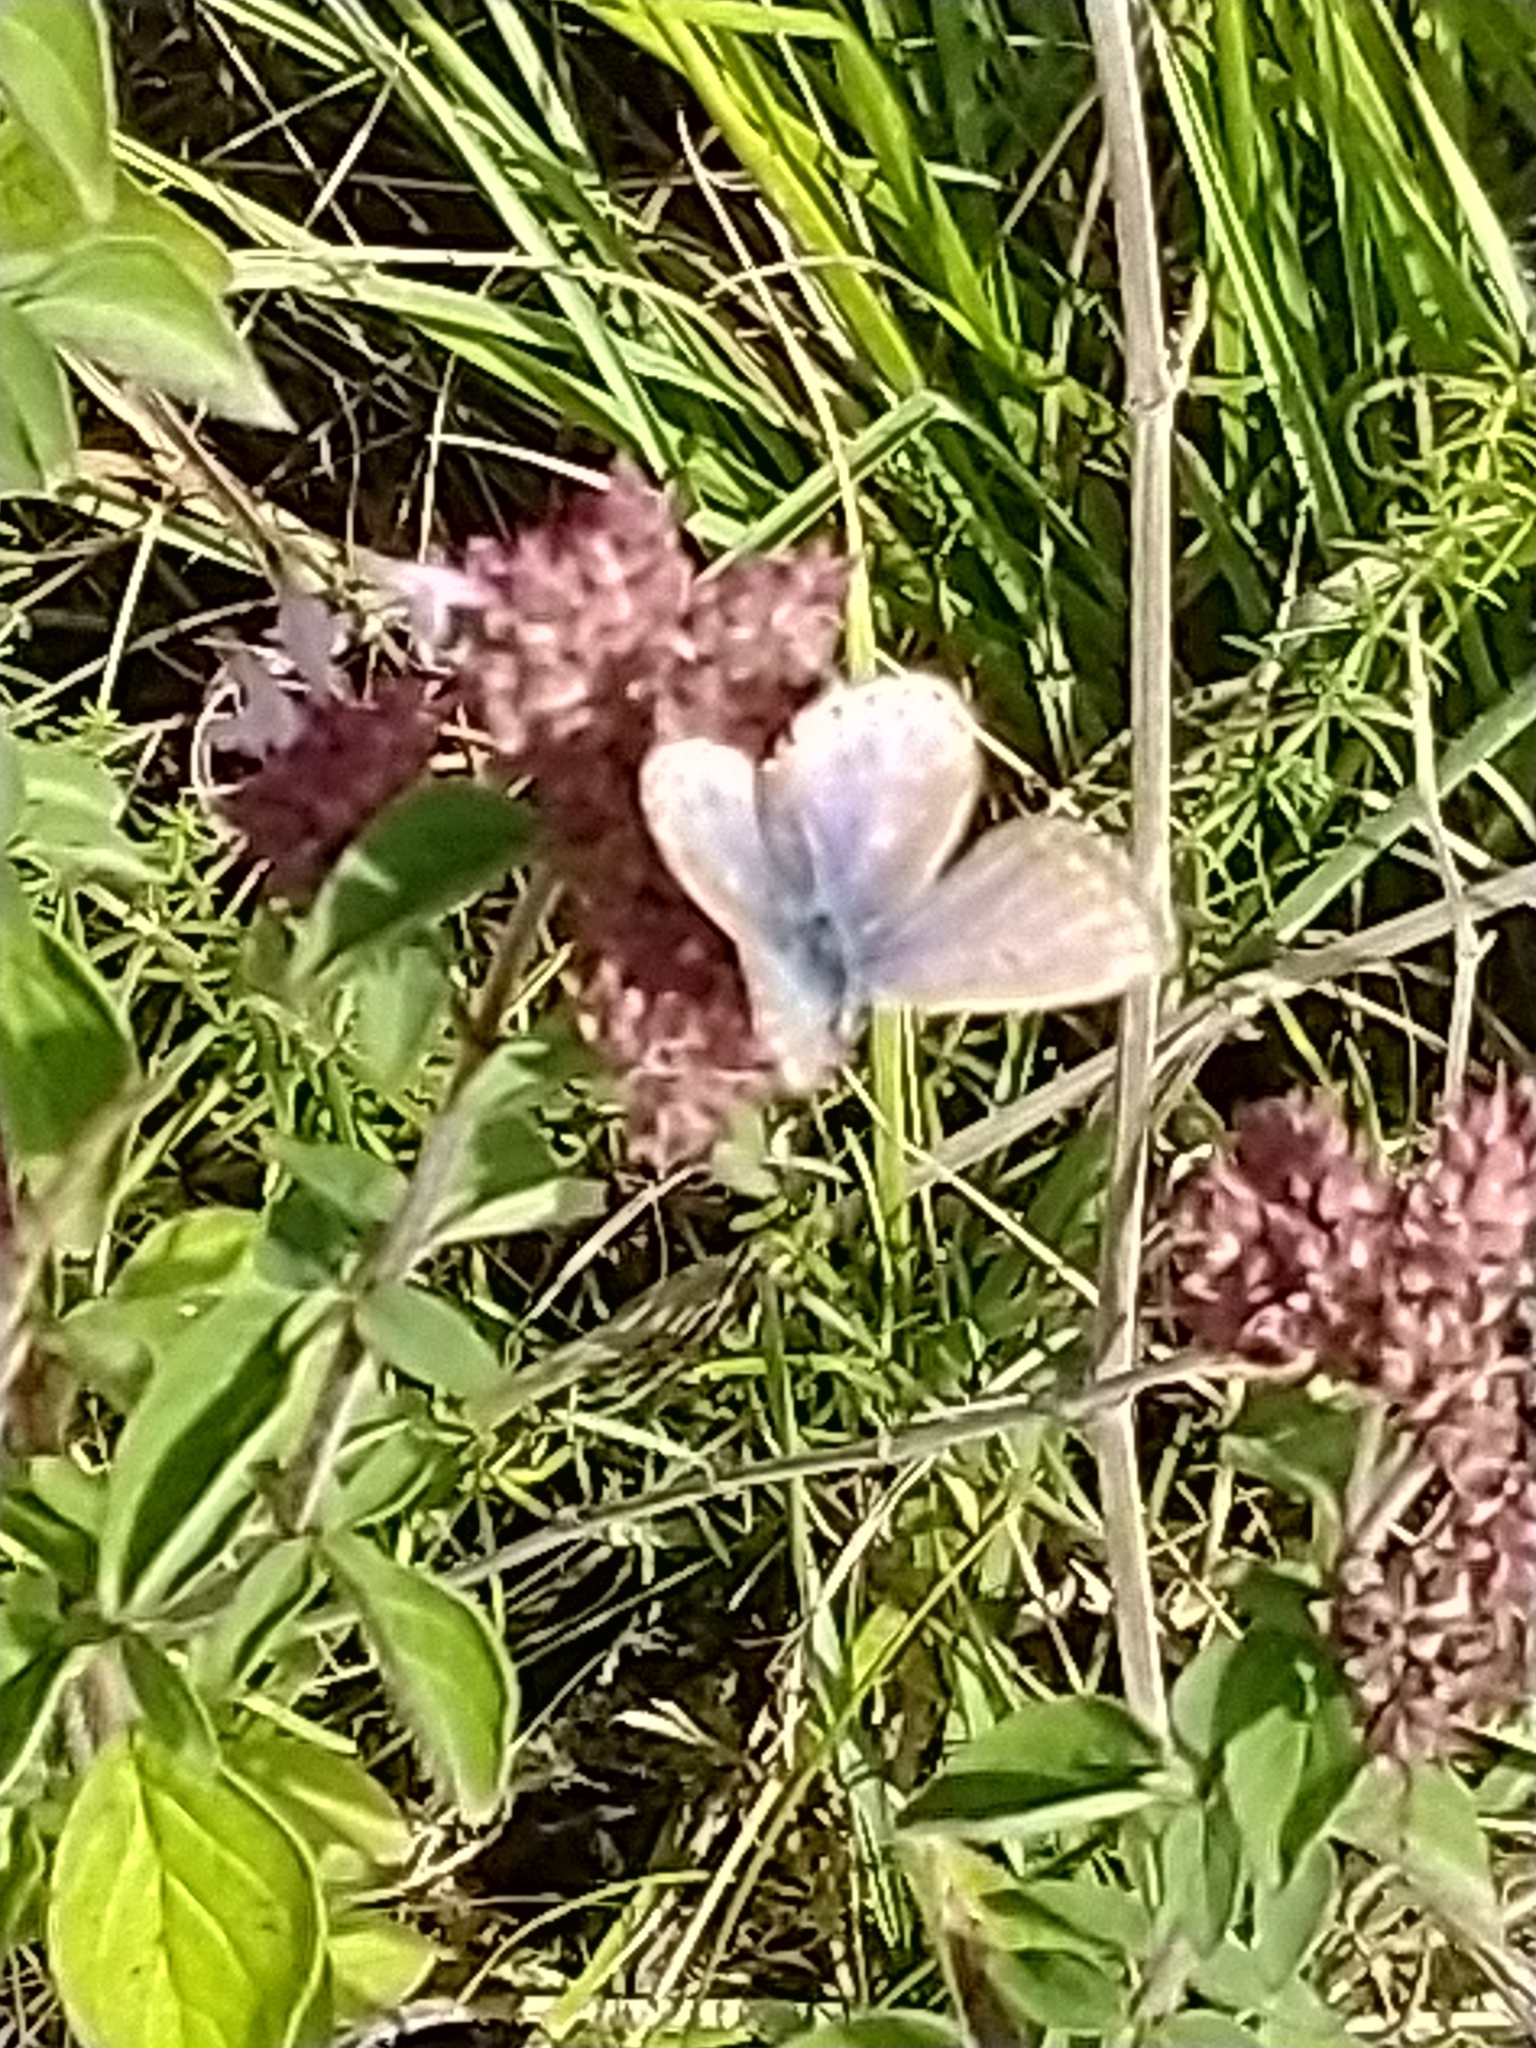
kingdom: Animalia
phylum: Arthropoda
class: Insecta
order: Lepidoptera
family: Lycaenidae
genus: Polyommatus
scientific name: Polyommatus icarus
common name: Common blue
